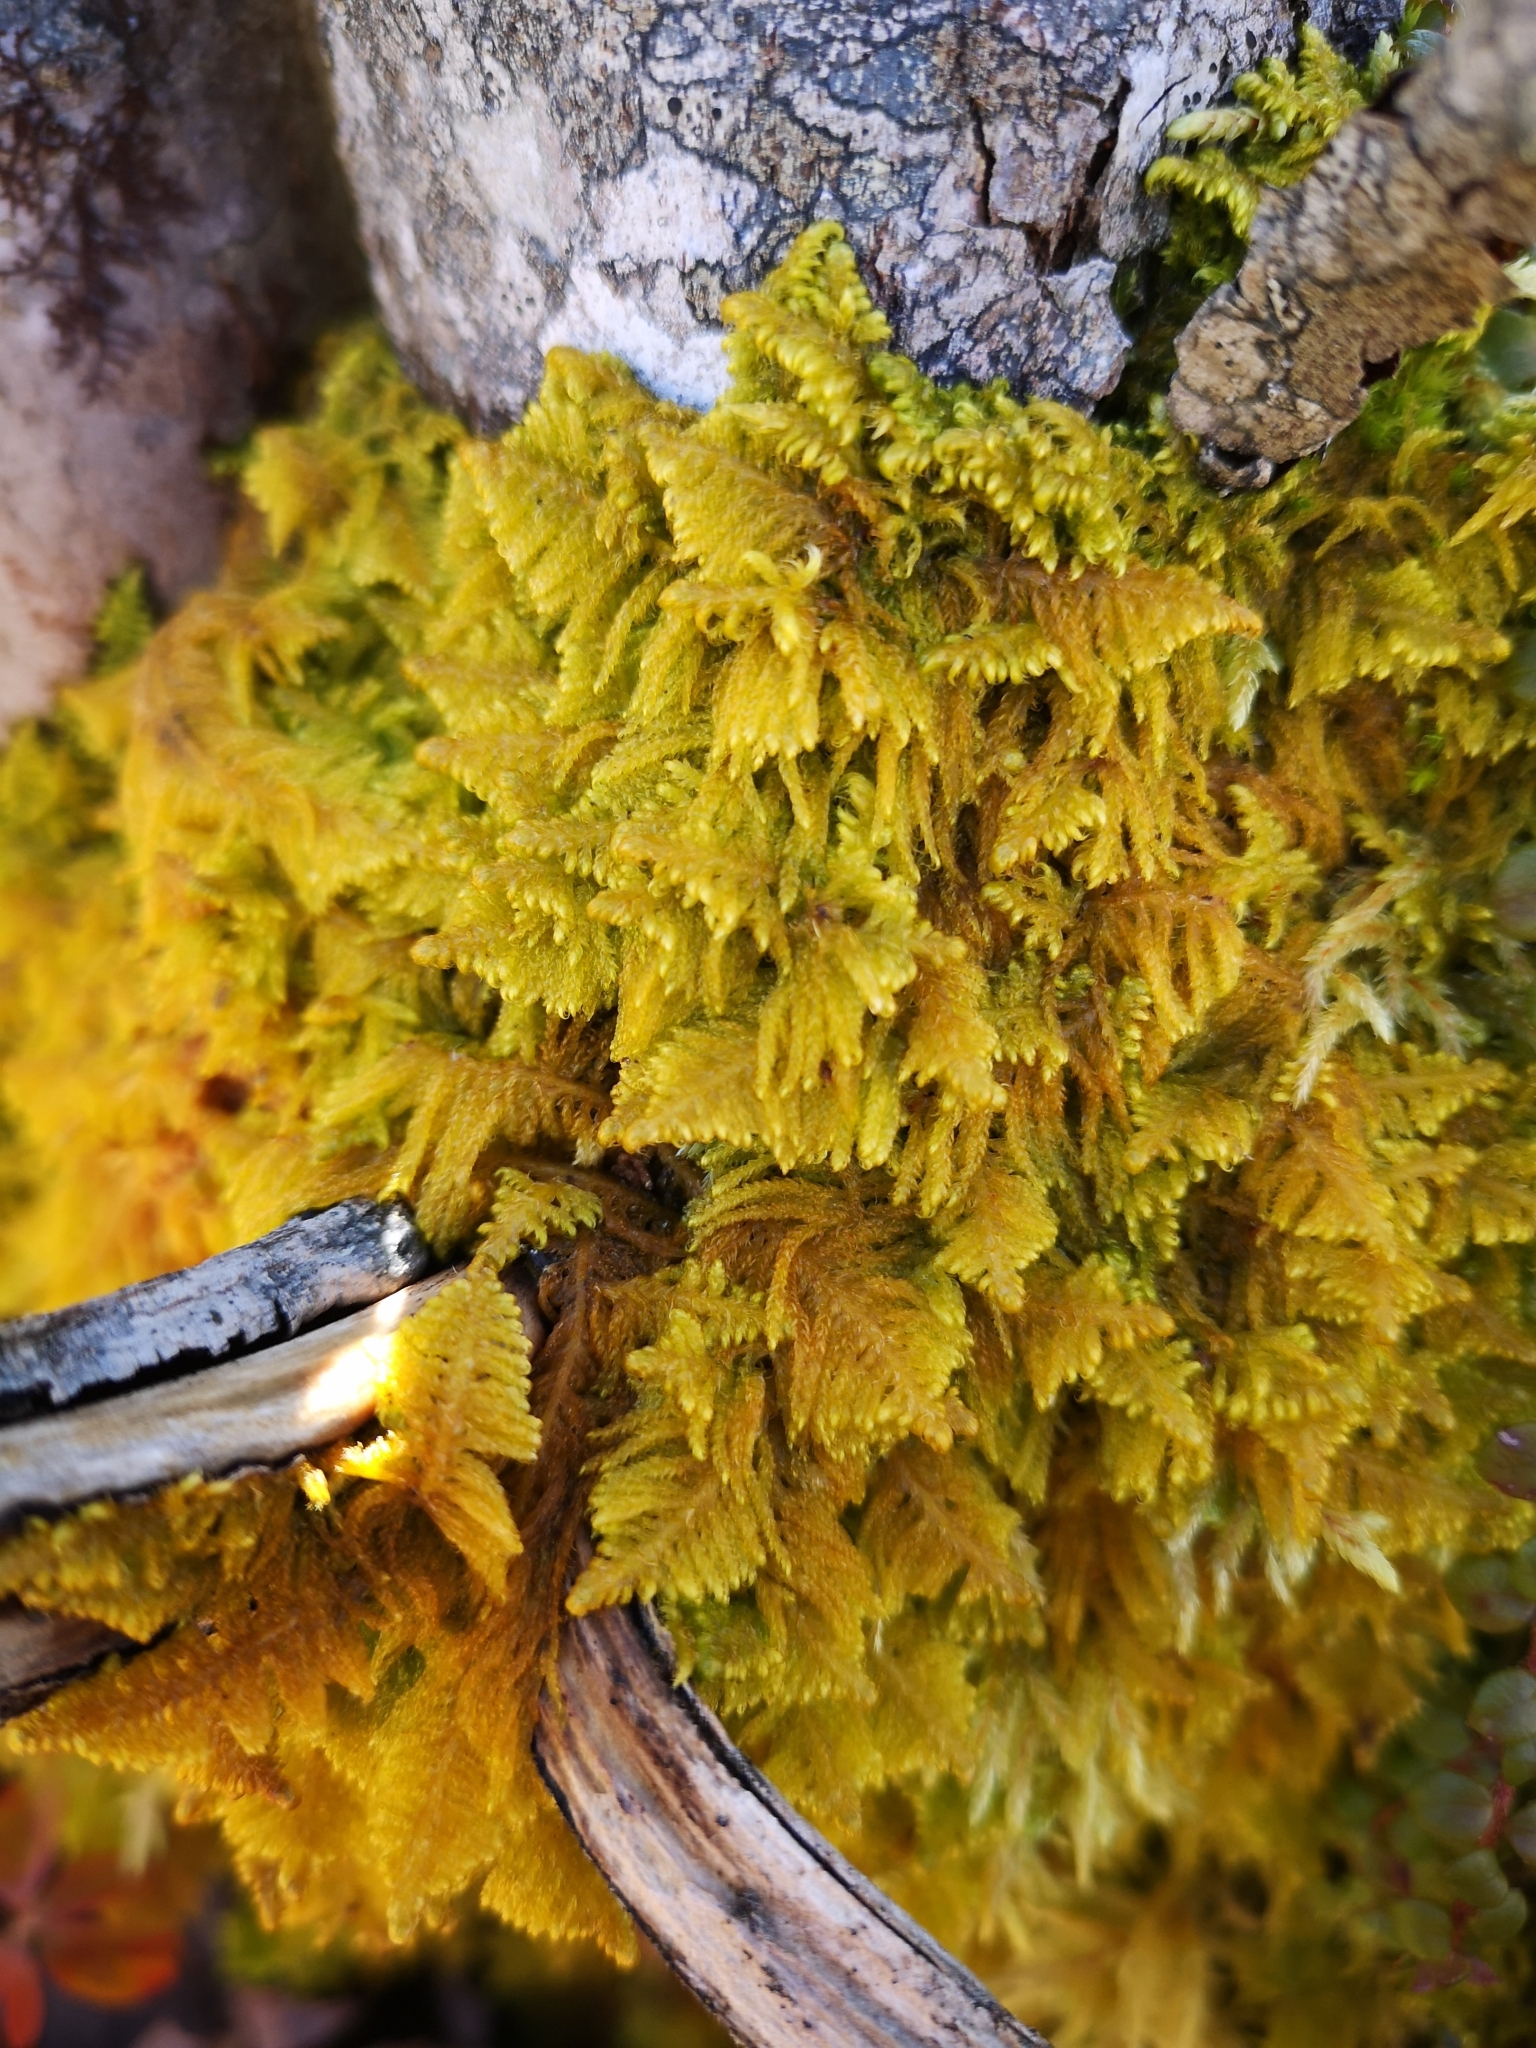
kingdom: Plantae
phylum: Bryophyta
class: Bryopsida
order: Hypnales
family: Pylaisiaceae
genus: Ptilium
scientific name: Ptilium crista-castrensis
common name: Knight's plume moss
